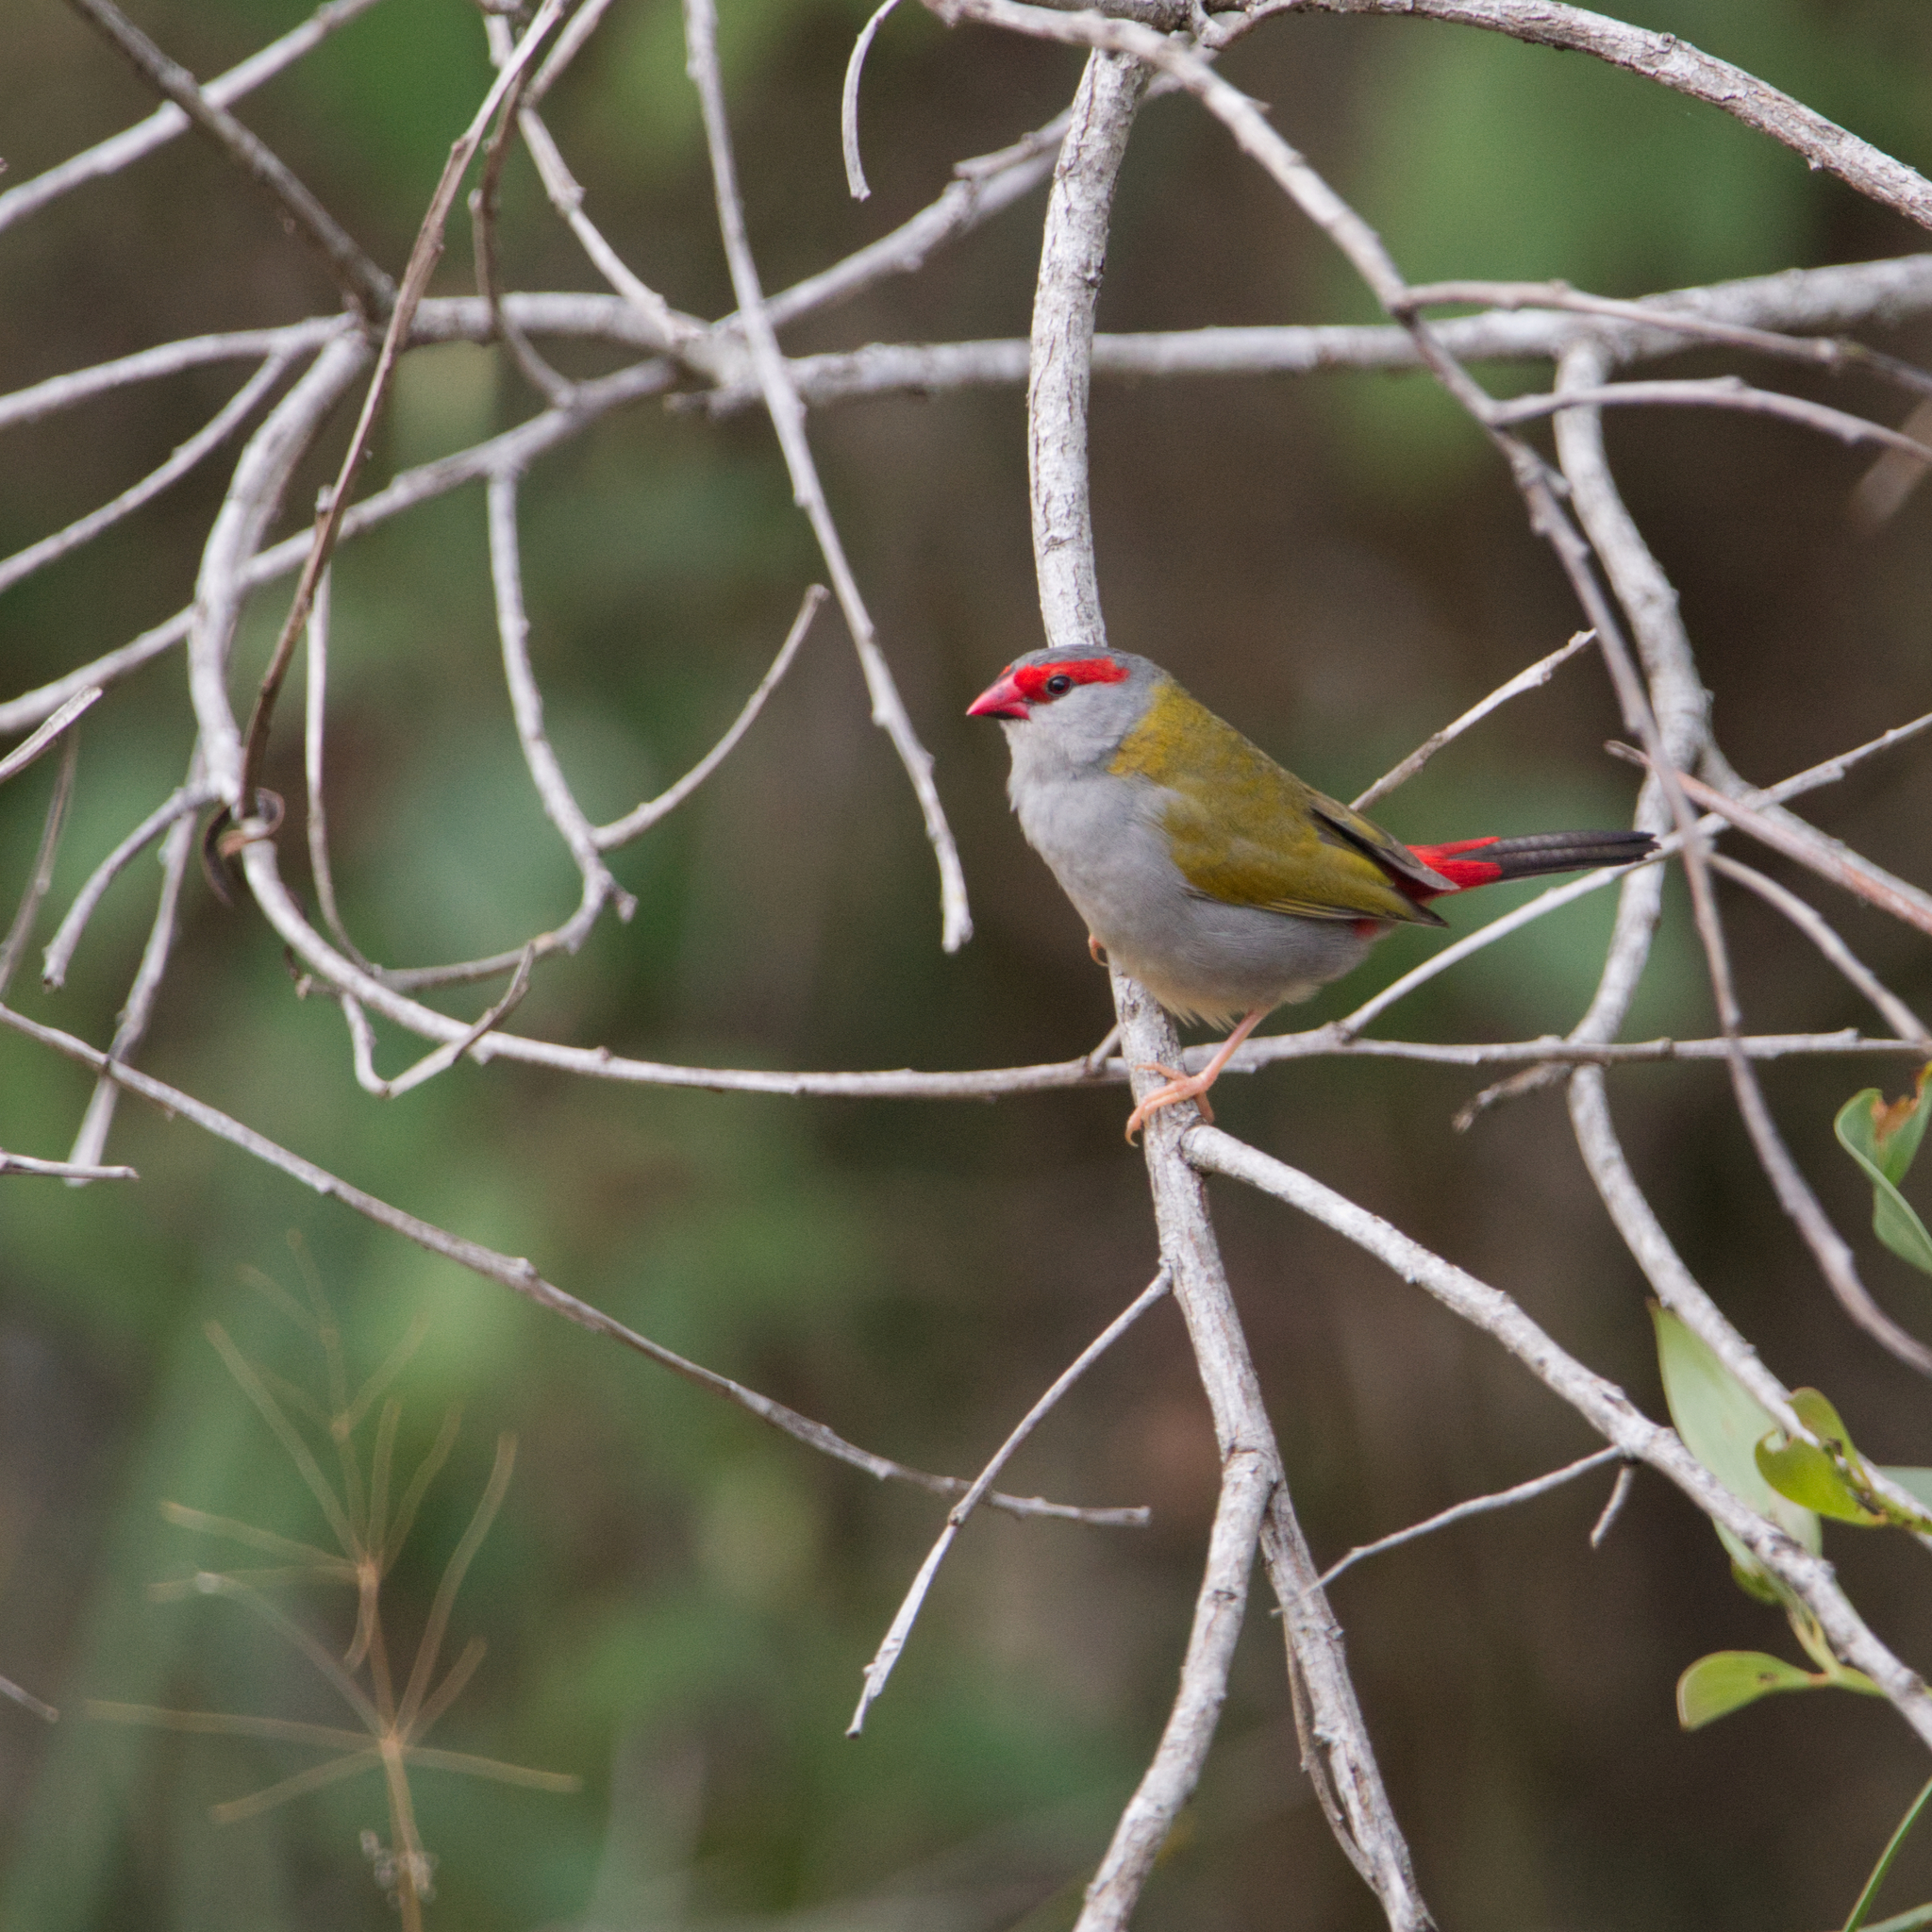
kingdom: Animalia
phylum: Chordata
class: Aves
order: Passeriformes
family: Estrildidae
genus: Neochmia
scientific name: Neochmia temporalis
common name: Red-browed finch
